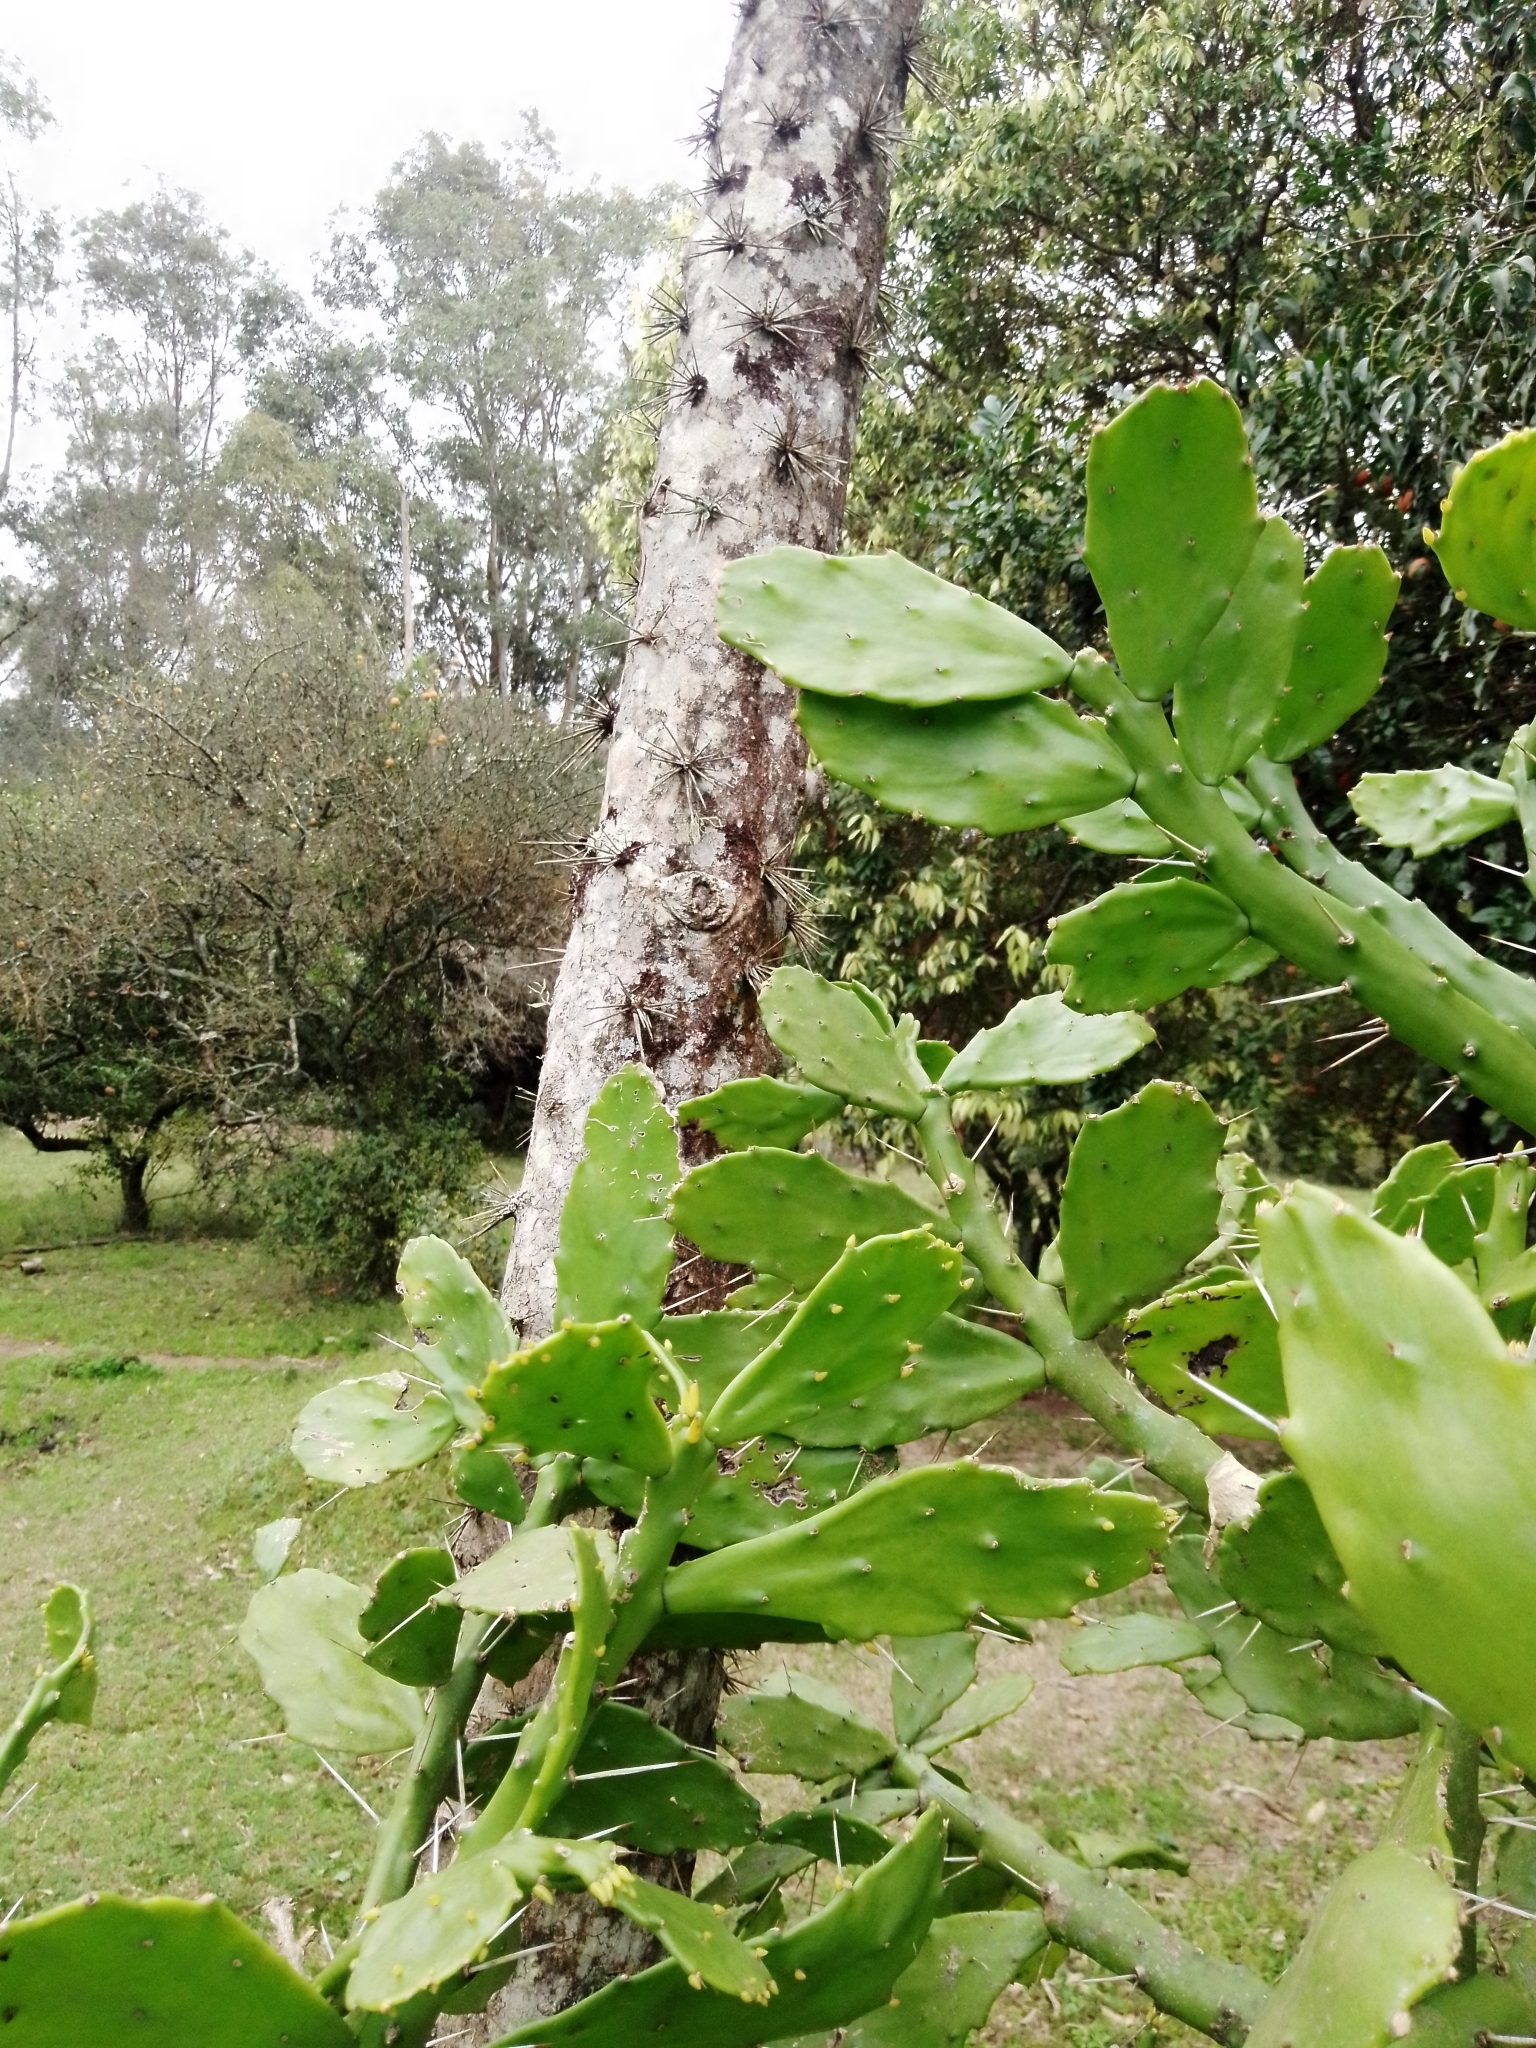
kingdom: Plantae
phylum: Tracheophyta
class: Magnoliopsida
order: Caryophyllales
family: Cactaceae
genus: Brasiliopuntia
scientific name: Brasiliopuntia brasiliensis
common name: Brazilian pricklypear
